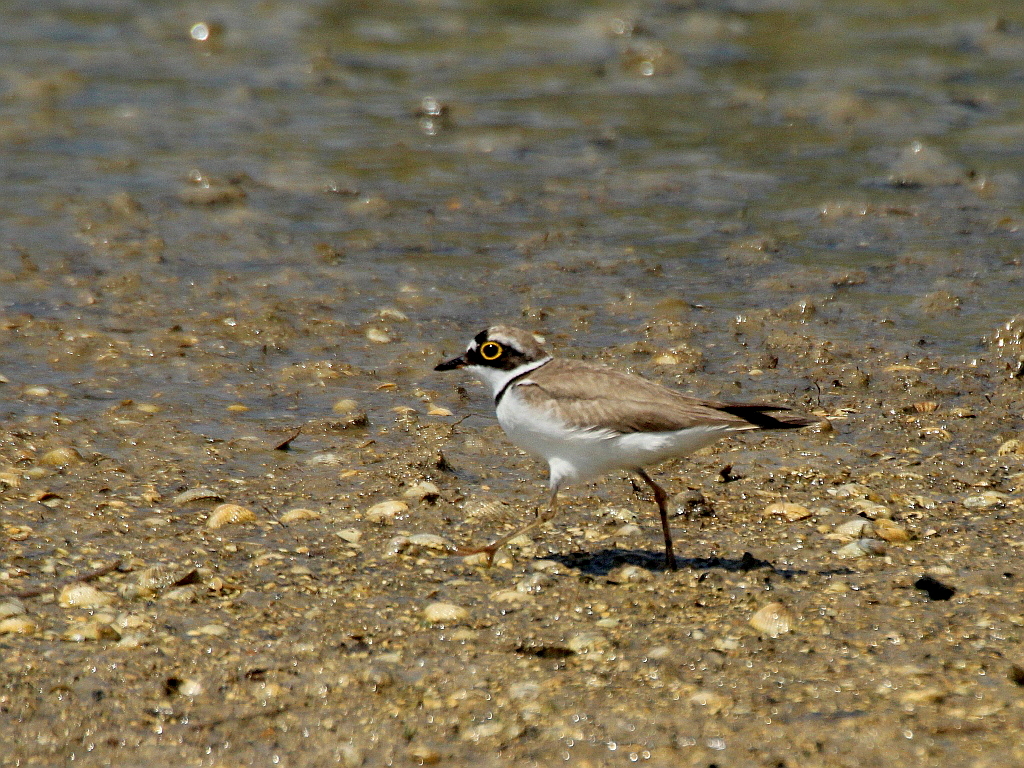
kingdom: Animalia
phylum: Chordata
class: Aves
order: Charadriiformes
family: Charadriidae
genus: Charadrius
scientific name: Charadrius dubius
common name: Little ringed plover
